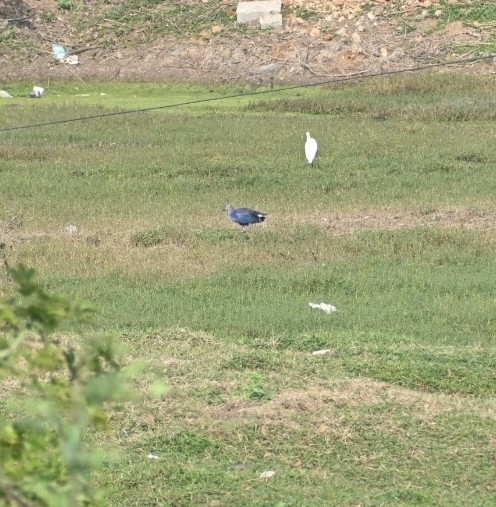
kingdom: Animalia
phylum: Chordata
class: Aves
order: Gruiformes
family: Rallidae
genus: Porphyrio
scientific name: Porphyrio porphyrio
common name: Purple swamphen
